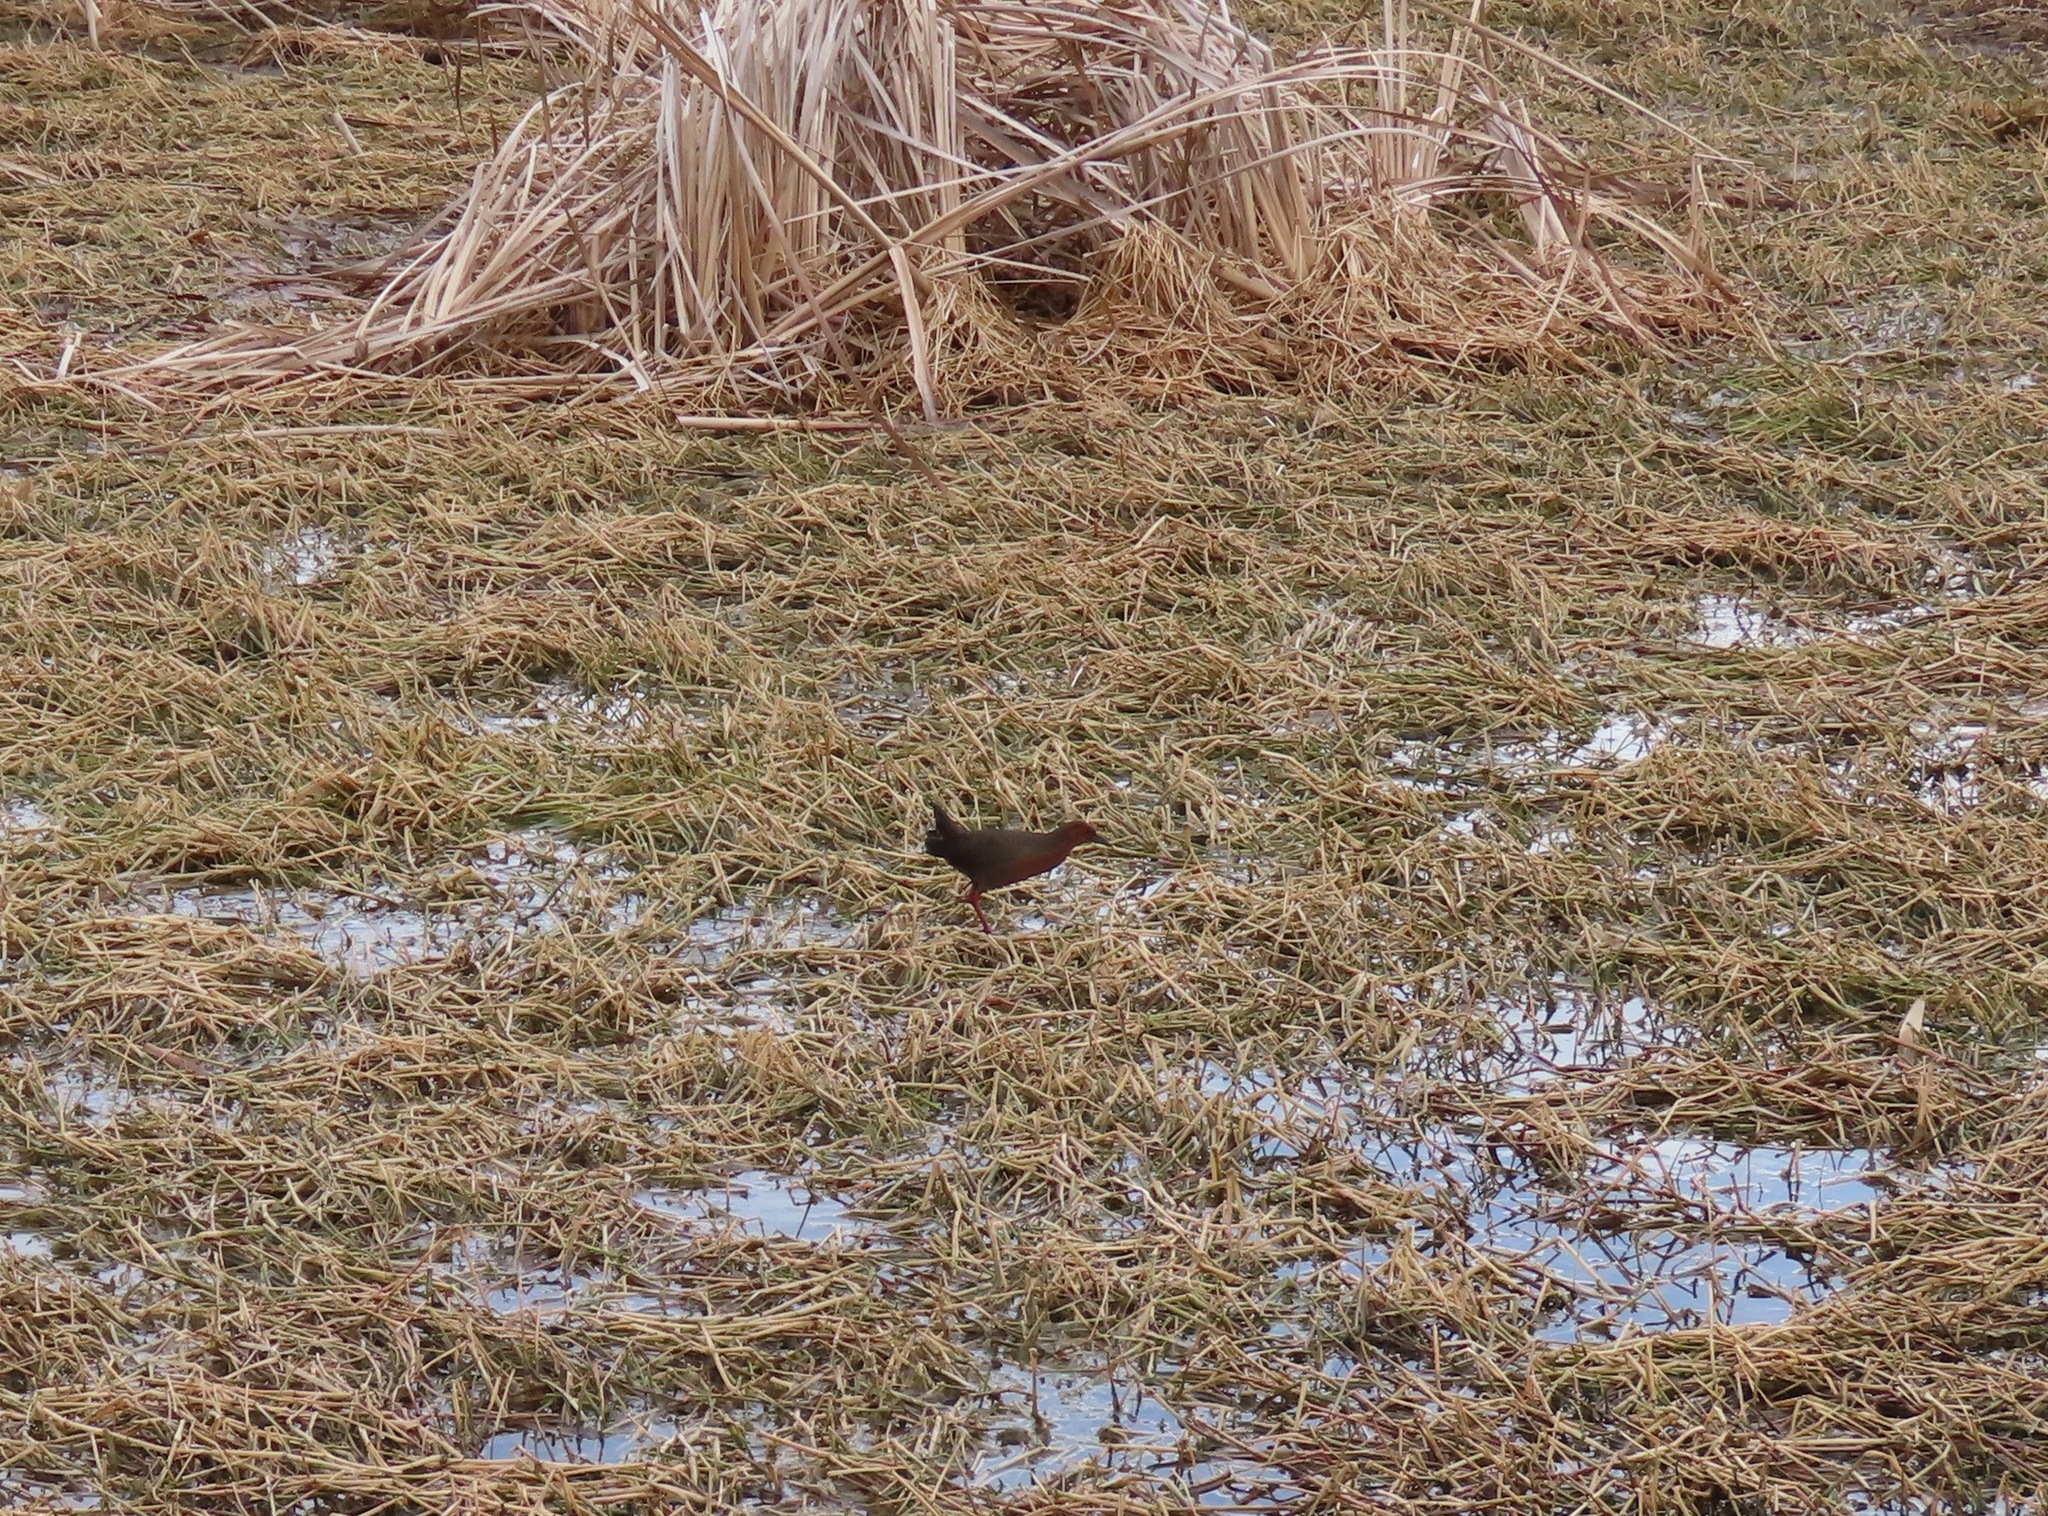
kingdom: Animalia
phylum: Chordata
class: Aves
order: Gruiformes
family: Rallidae
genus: Porzana
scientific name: Porzana fusca
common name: Ruddy-breasted crake
